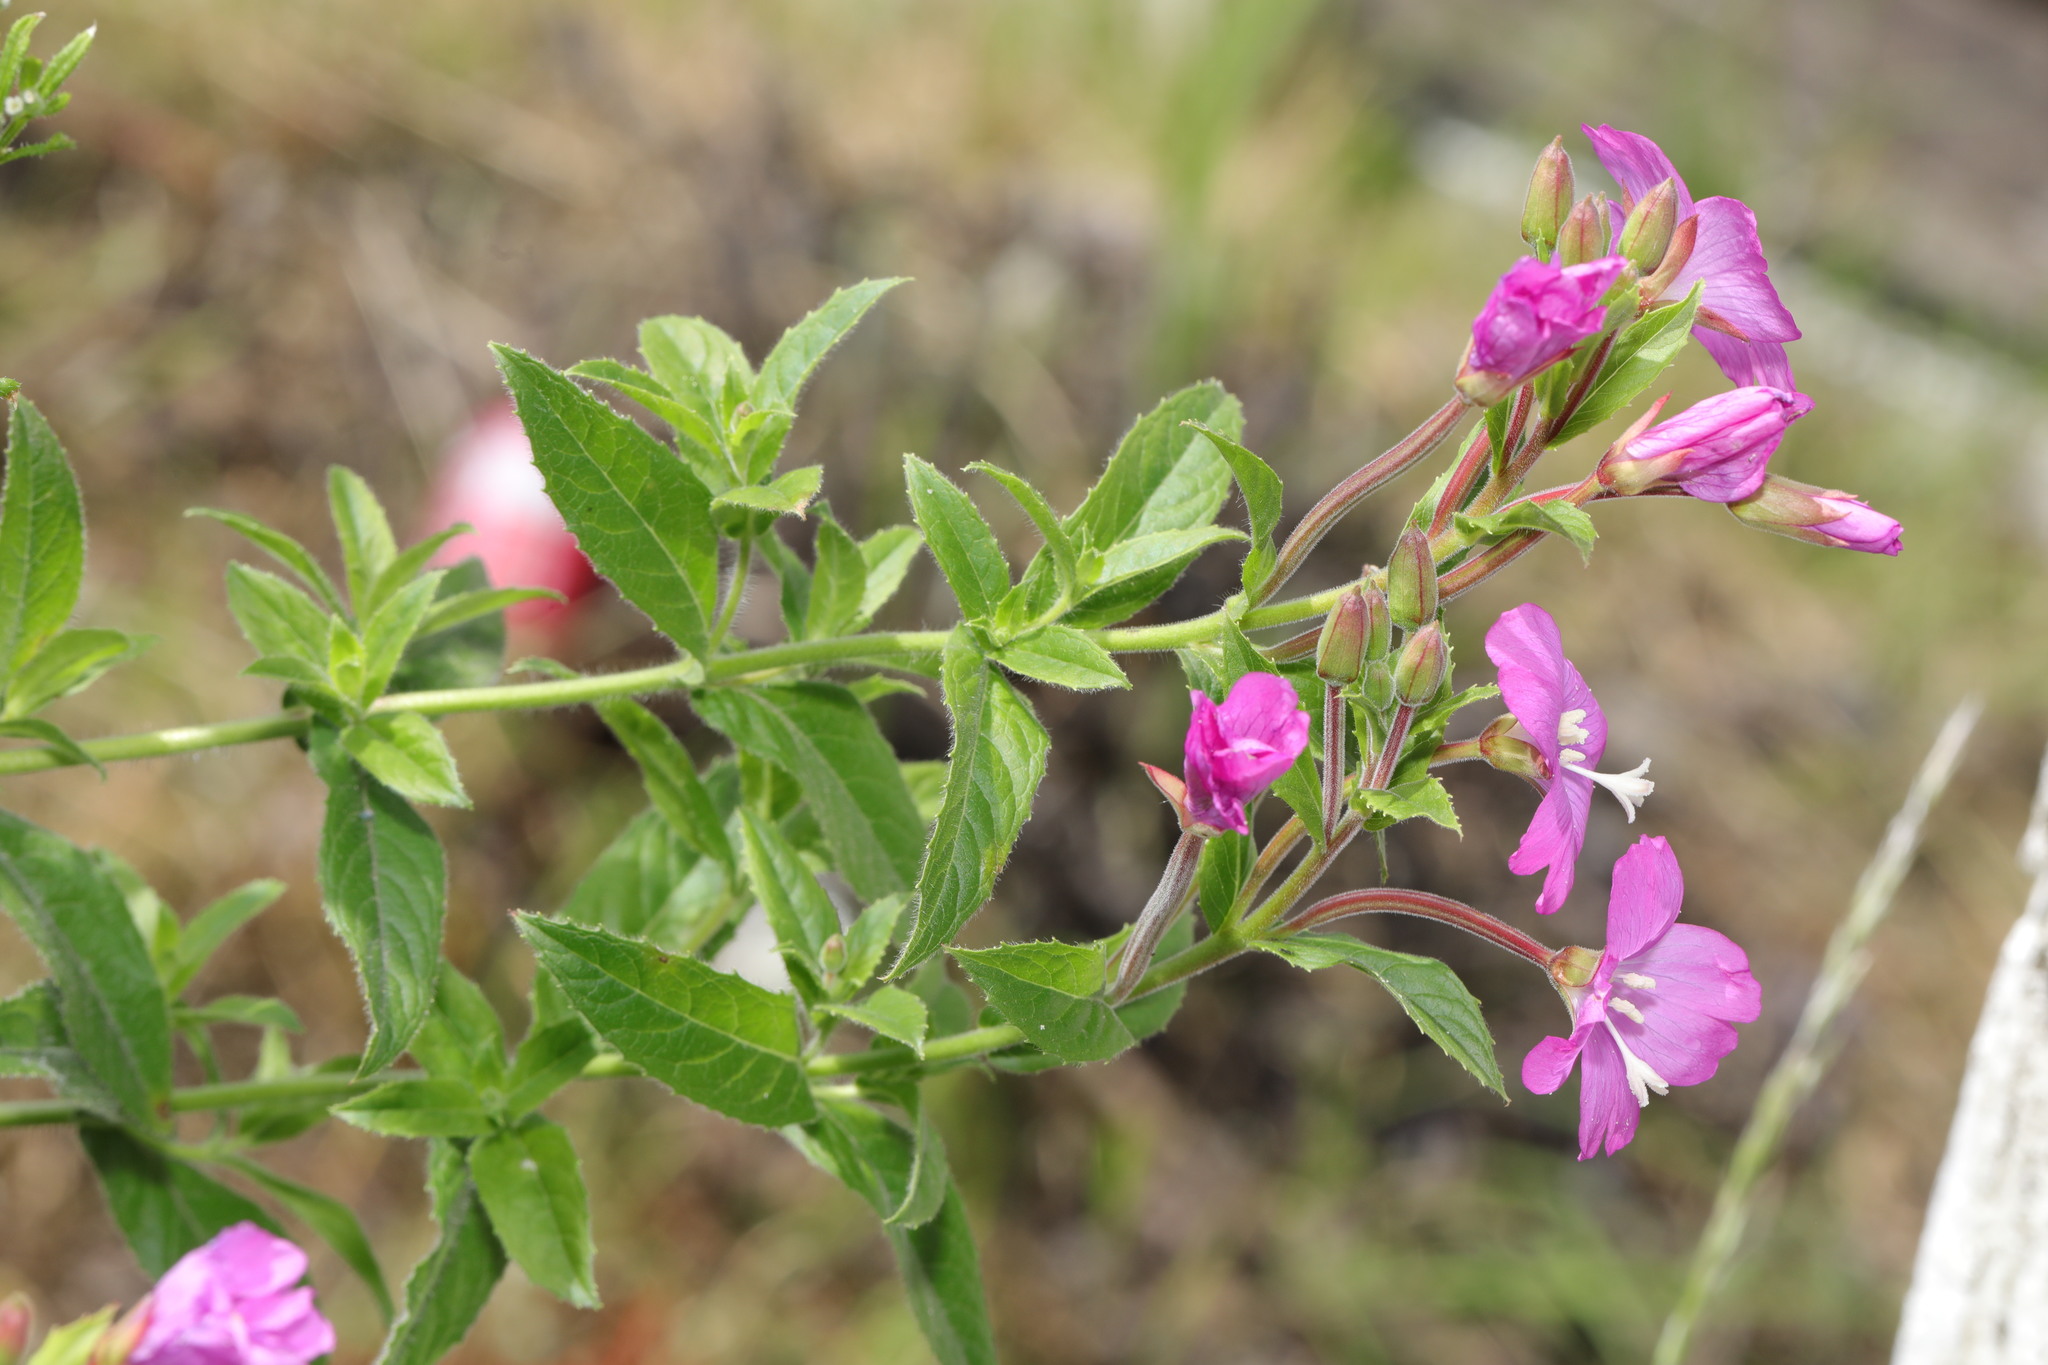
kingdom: Plantae
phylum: Tracheophyta
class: Magnoliopsida
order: Myrtales
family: Onagraceae
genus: Epilobium
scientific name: Epilobium hirsutum
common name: Great willowherb
